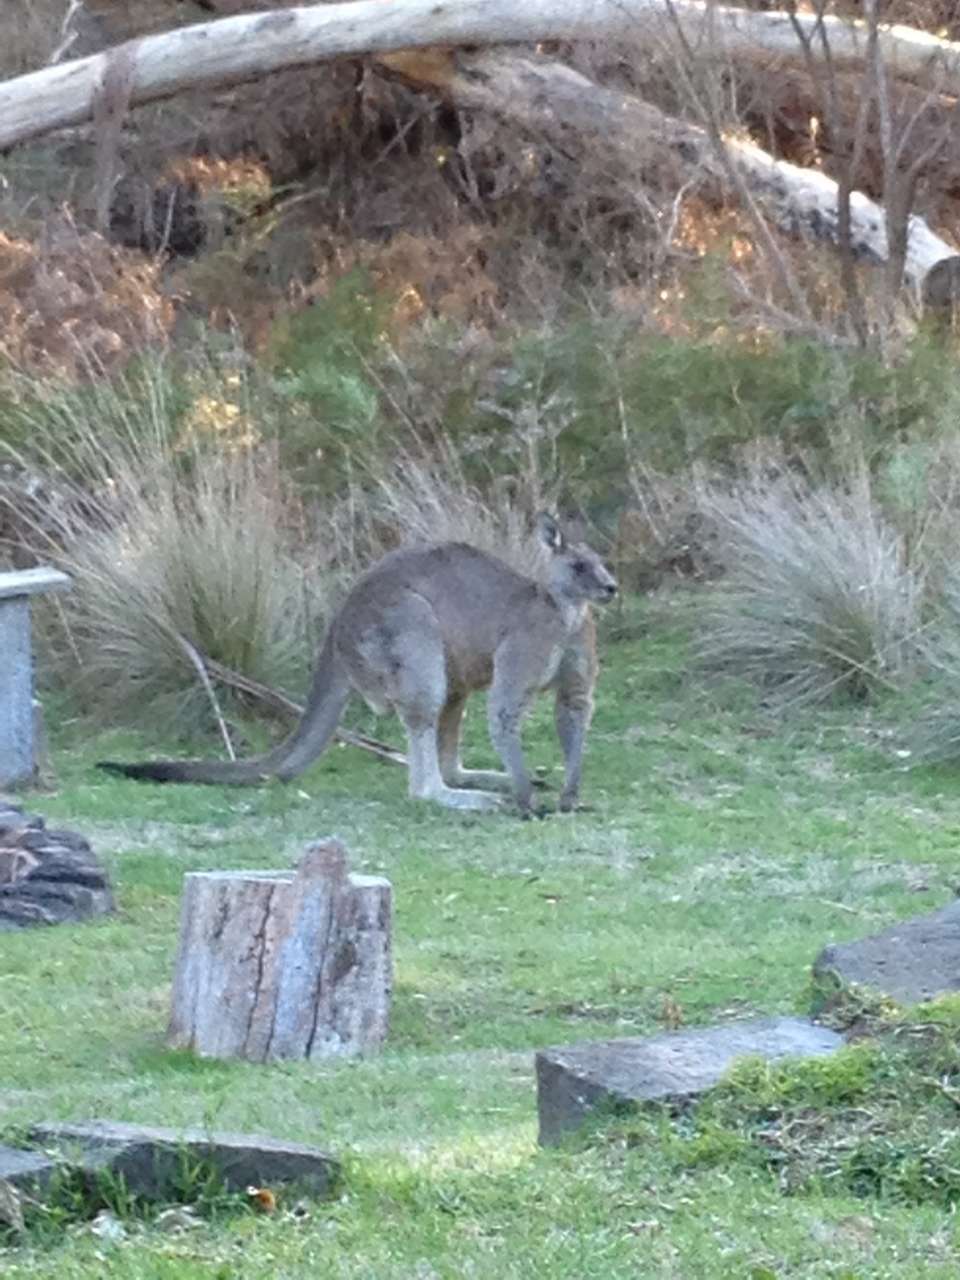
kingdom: Animalia
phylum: Chordata
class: Mammalia
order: Diprotodontia
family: Macropodidae
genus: Macropus
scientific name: Macropus giganteus
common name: Eastern grey kangaroo
